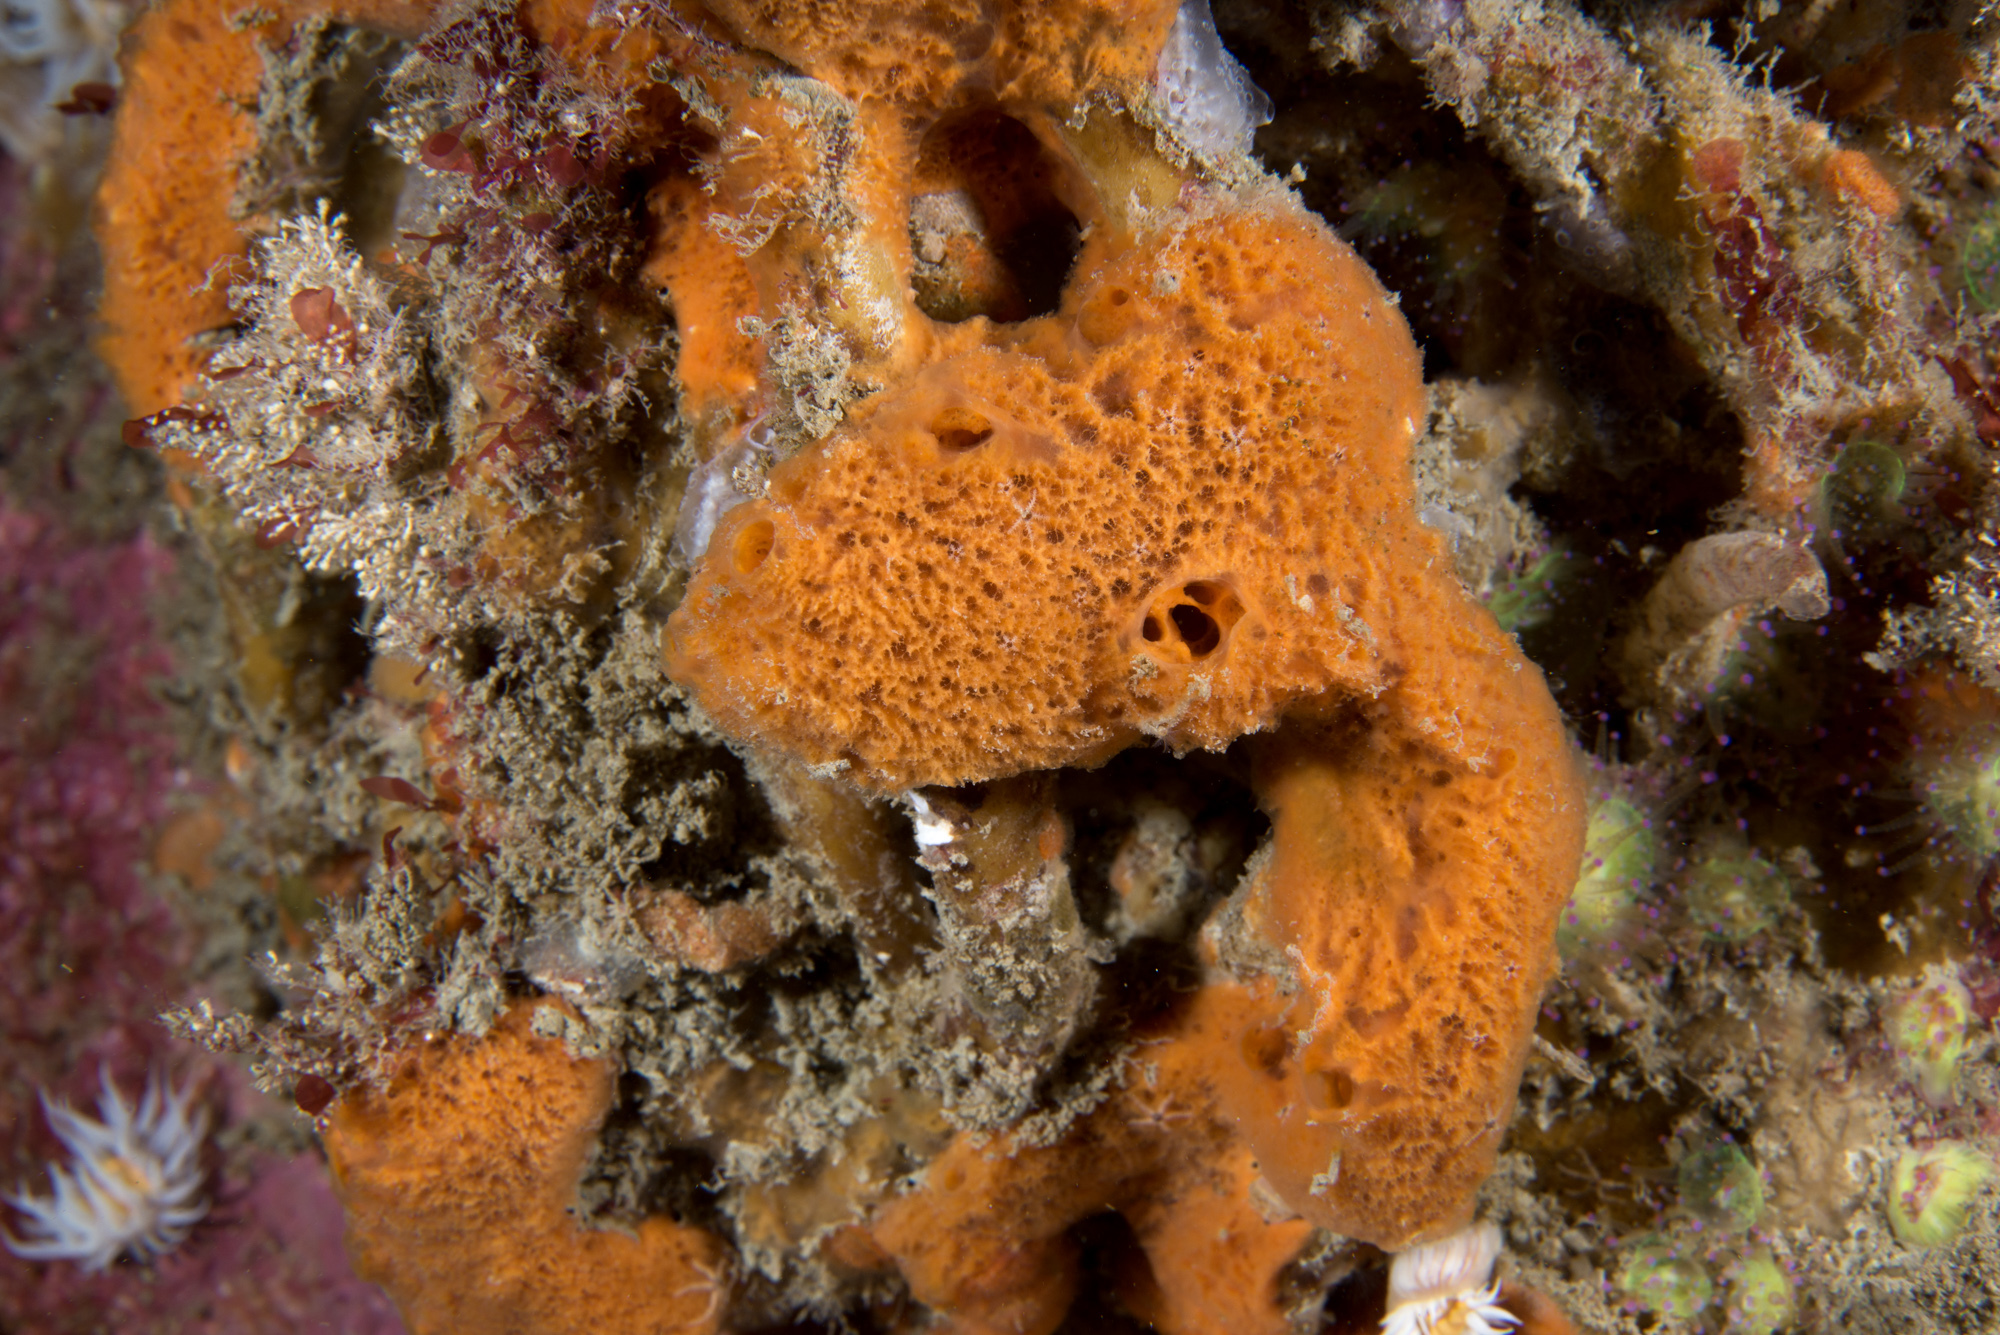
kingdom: Animalia
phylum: Porifera
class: Demospongiae
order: Poecilosclerida
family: Esperiopsidae
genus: Amphilectus
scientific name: Amphilectus fucorum
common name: Carrot-sponge
